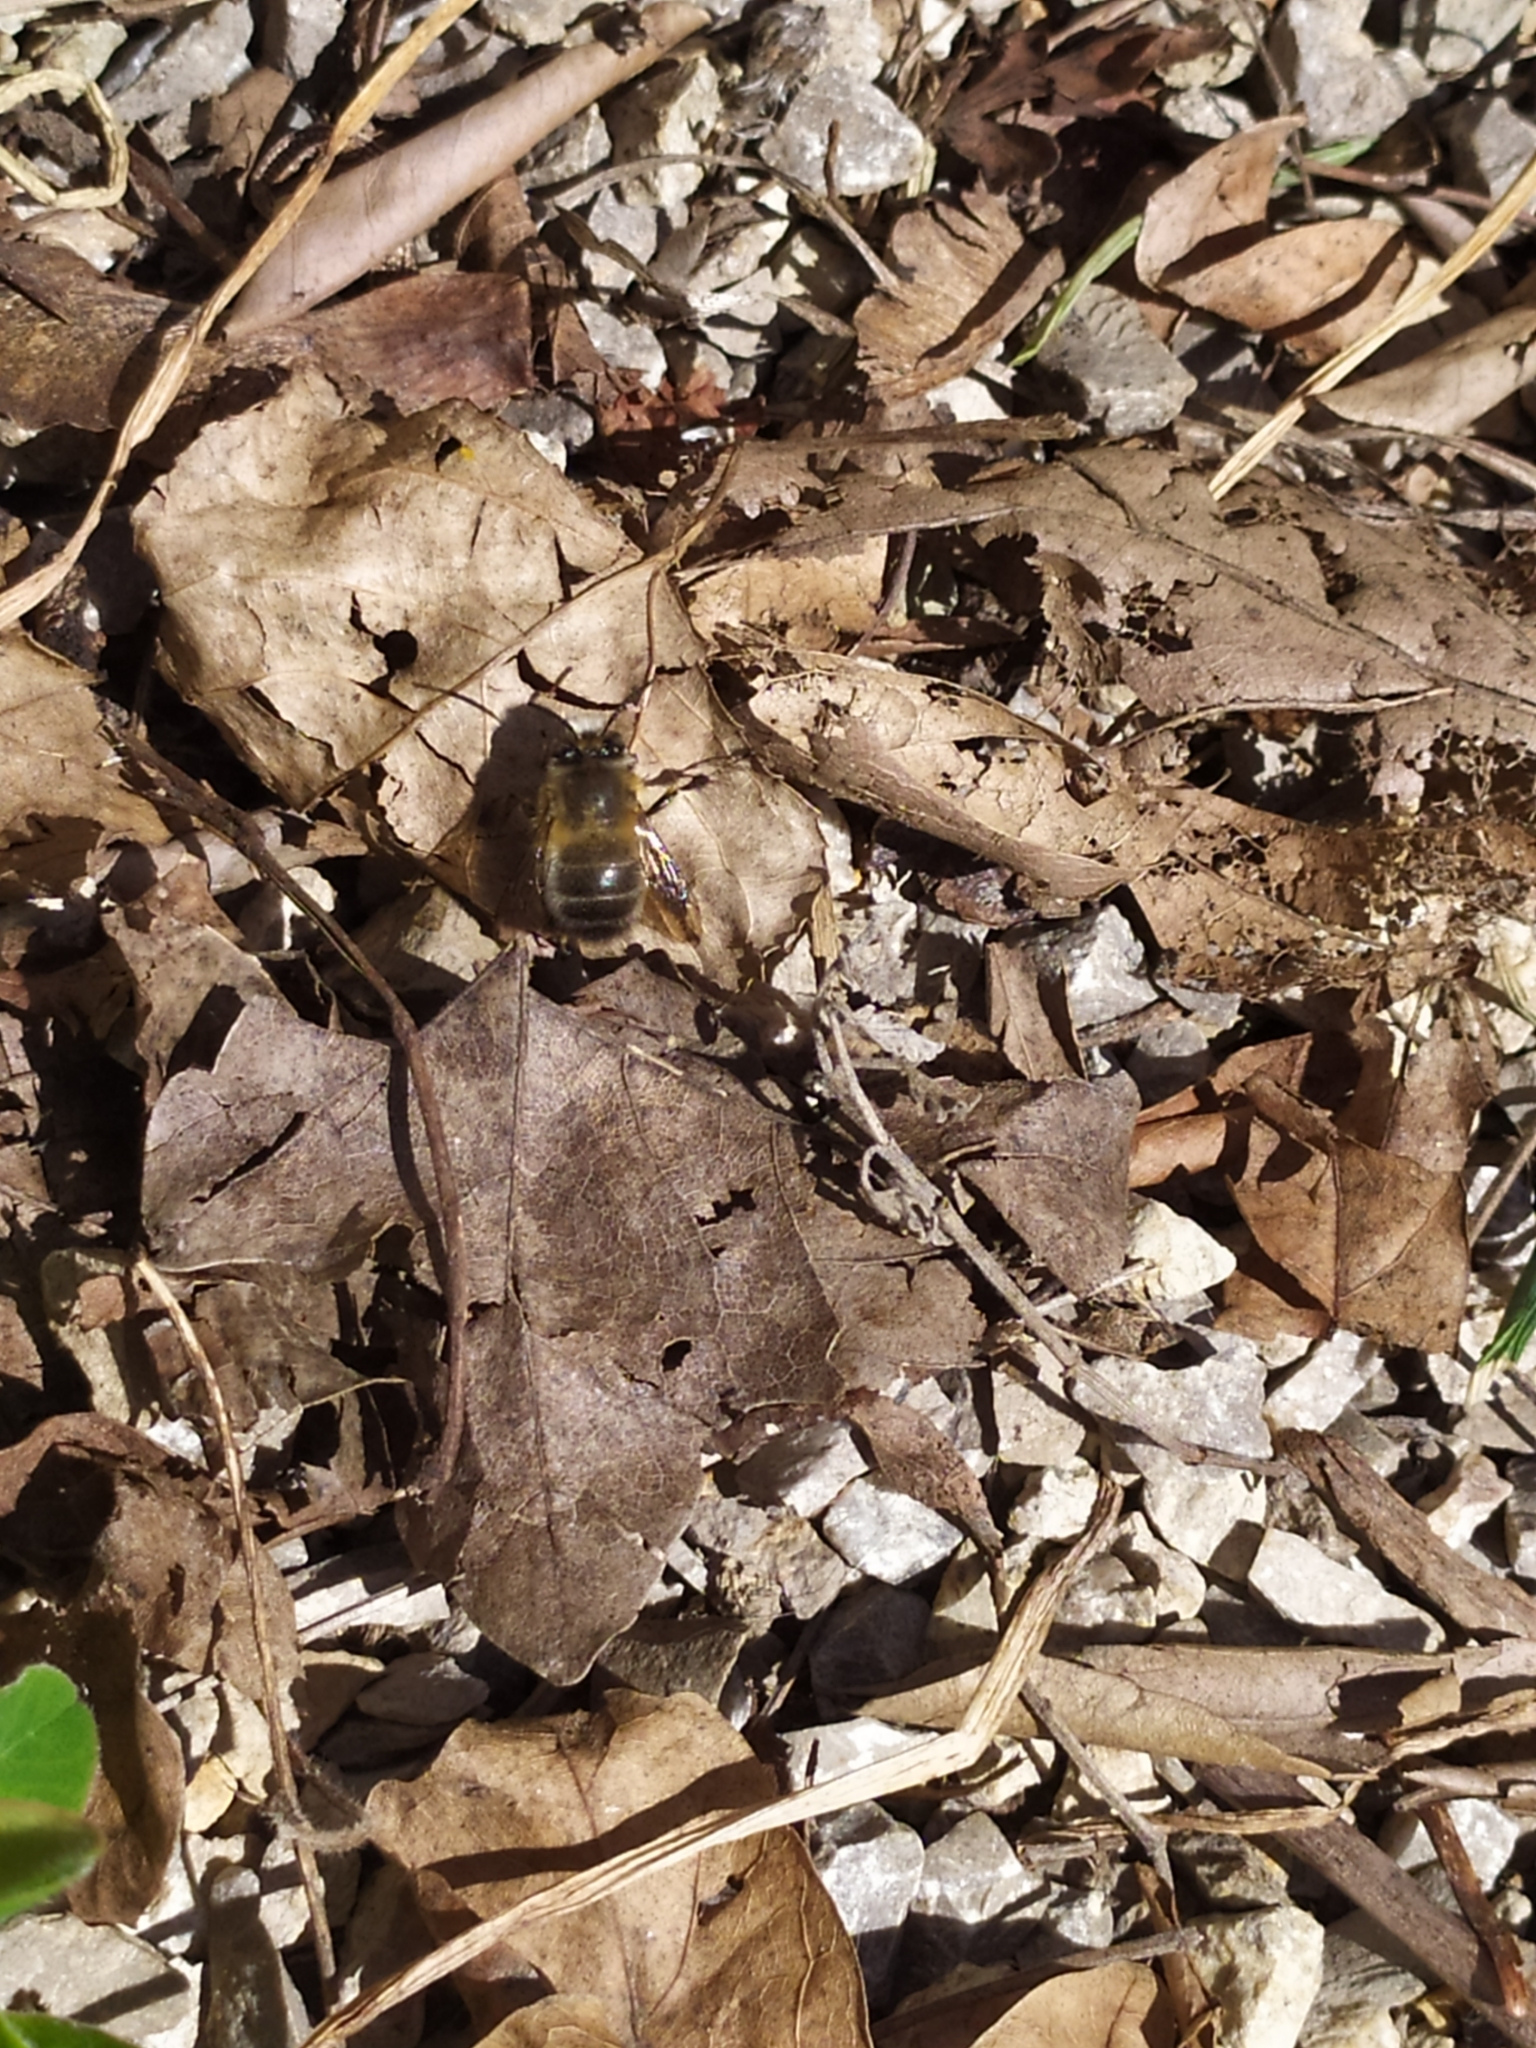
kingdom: Animalia
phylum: Arthropoda
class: Insecta
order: Hymenoptera
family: Apidae
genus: Anthophora
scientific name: Anthophora plumipes
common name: Hairy-footed flower bee
